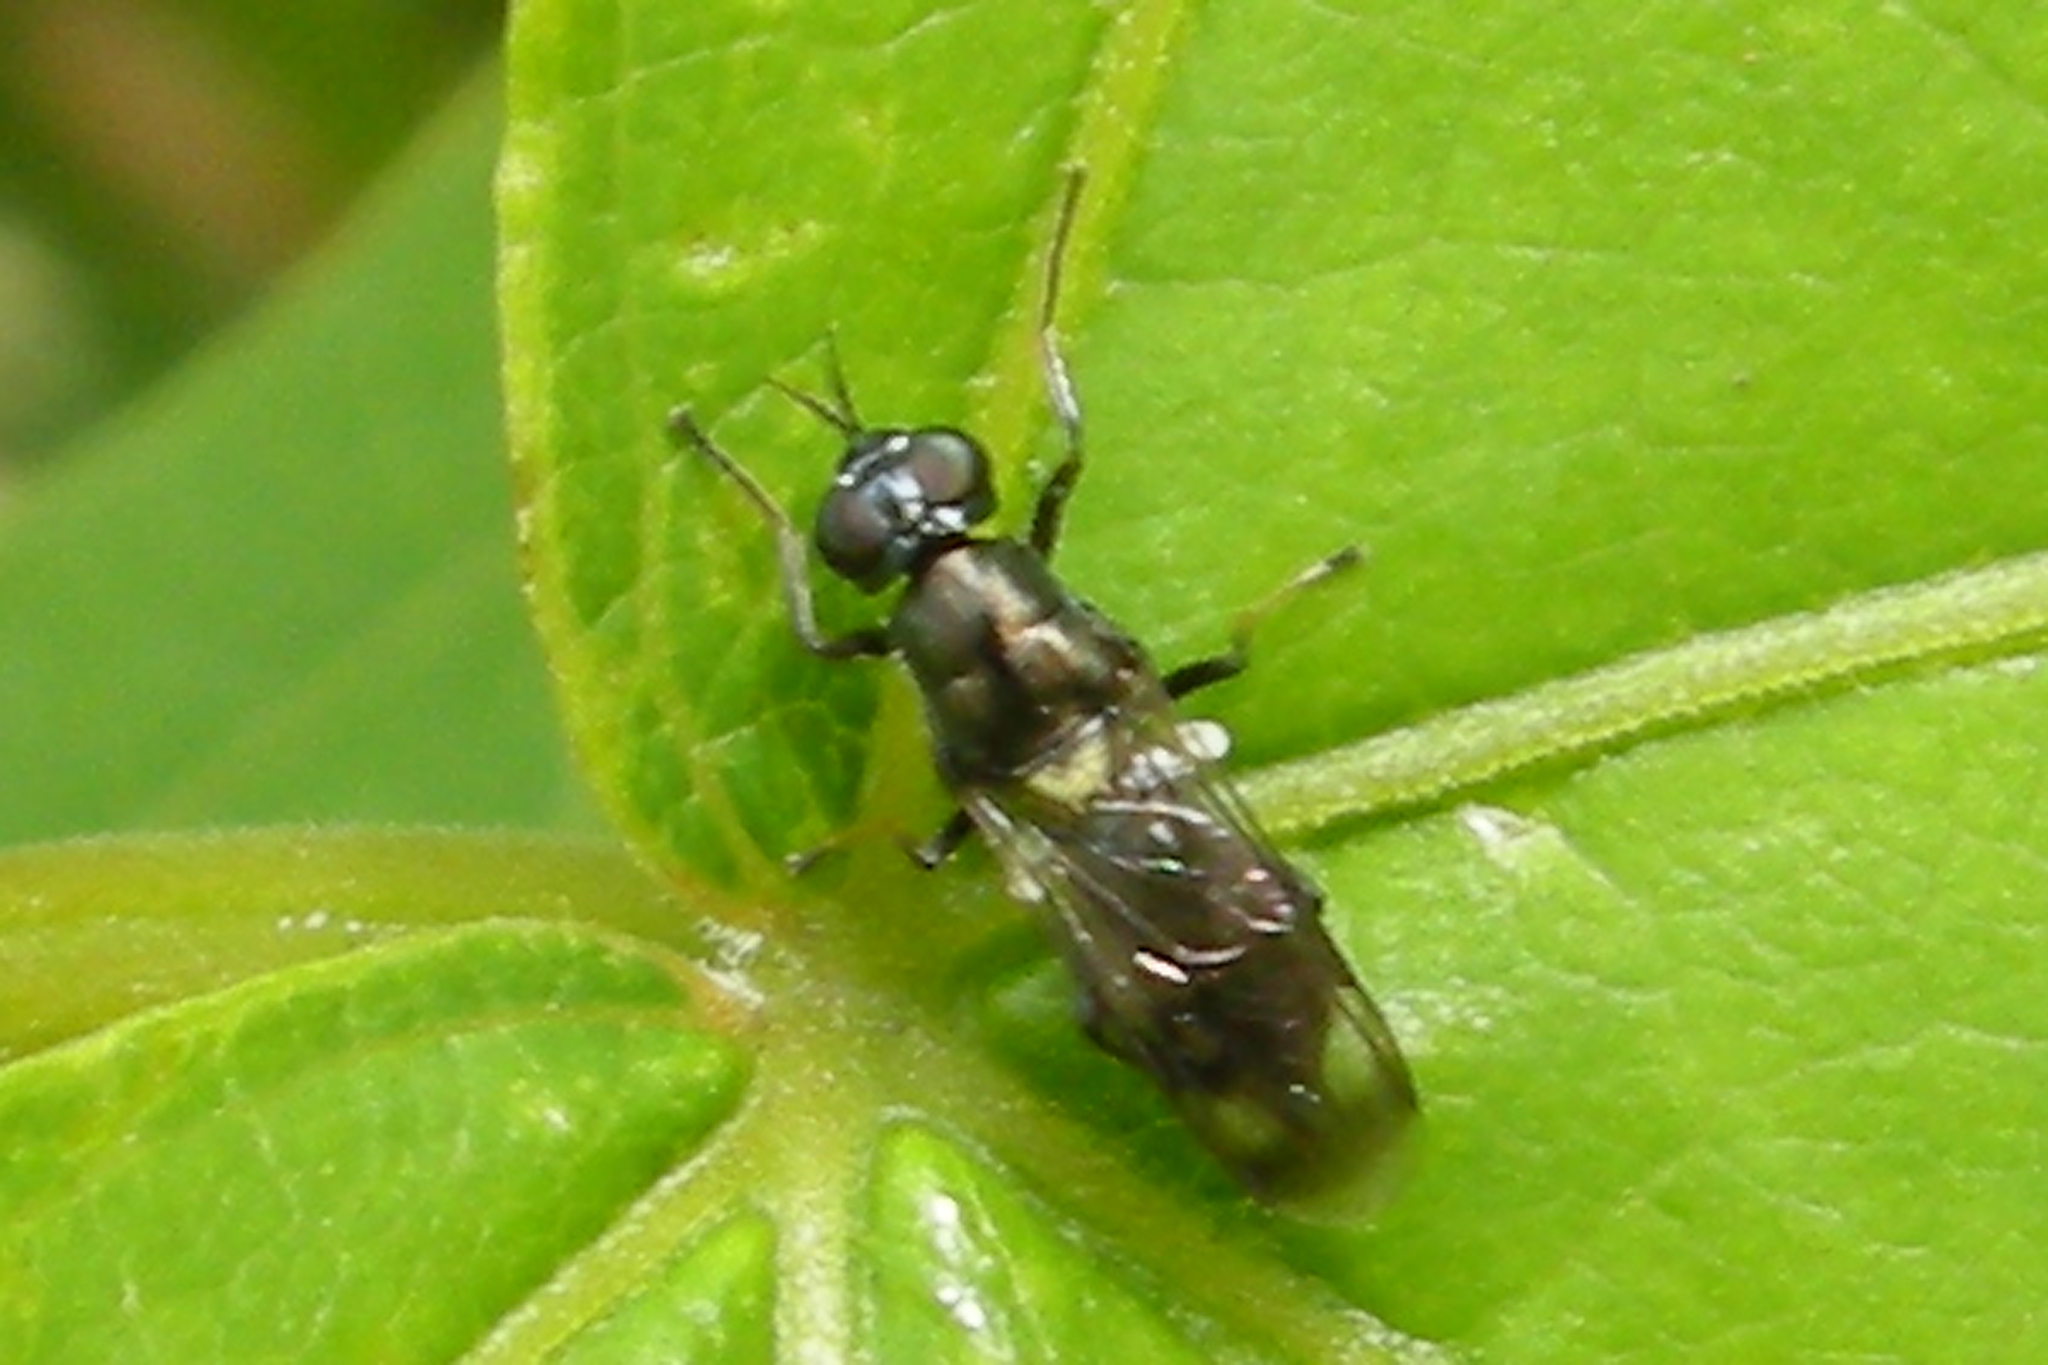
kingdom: Animalia
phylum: Arthropoda
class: Insecta
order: Diptera
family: Stratiomyidae
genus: Myxosargus
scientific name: Myxosargus nigricormis
